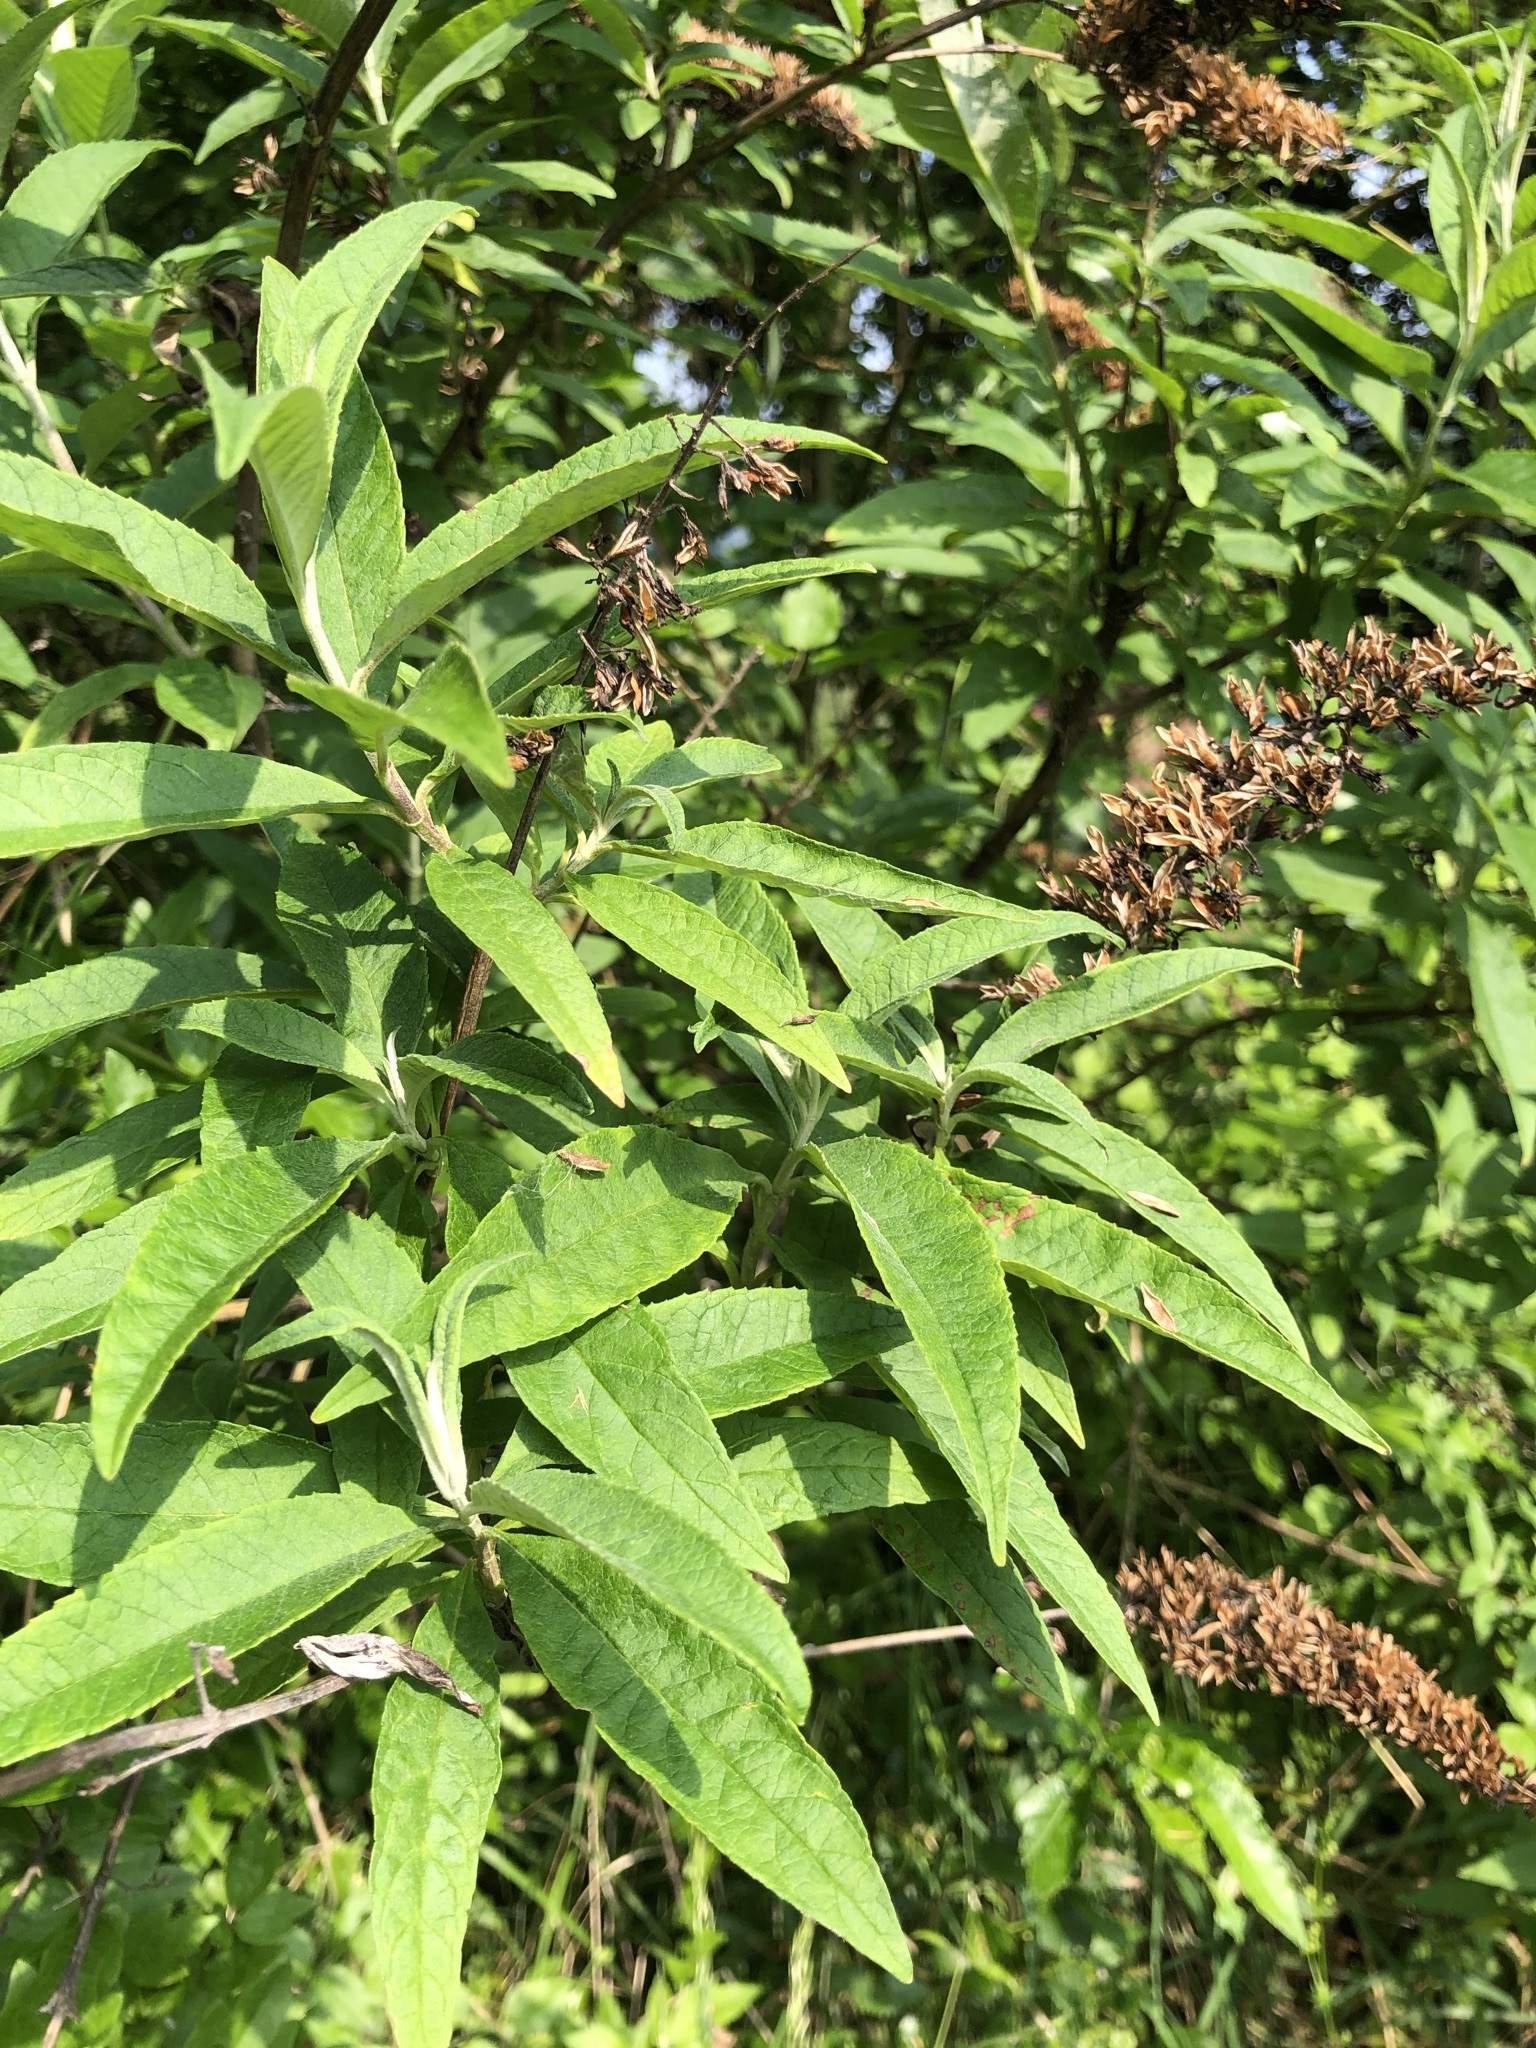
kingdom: Plantae
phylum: Tracheophyta
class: Magnoliopsida
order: Lamiales
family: Scrophulariaceae
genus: Buddleja
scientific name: Buddleja davidii
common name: Butterfly-bush
